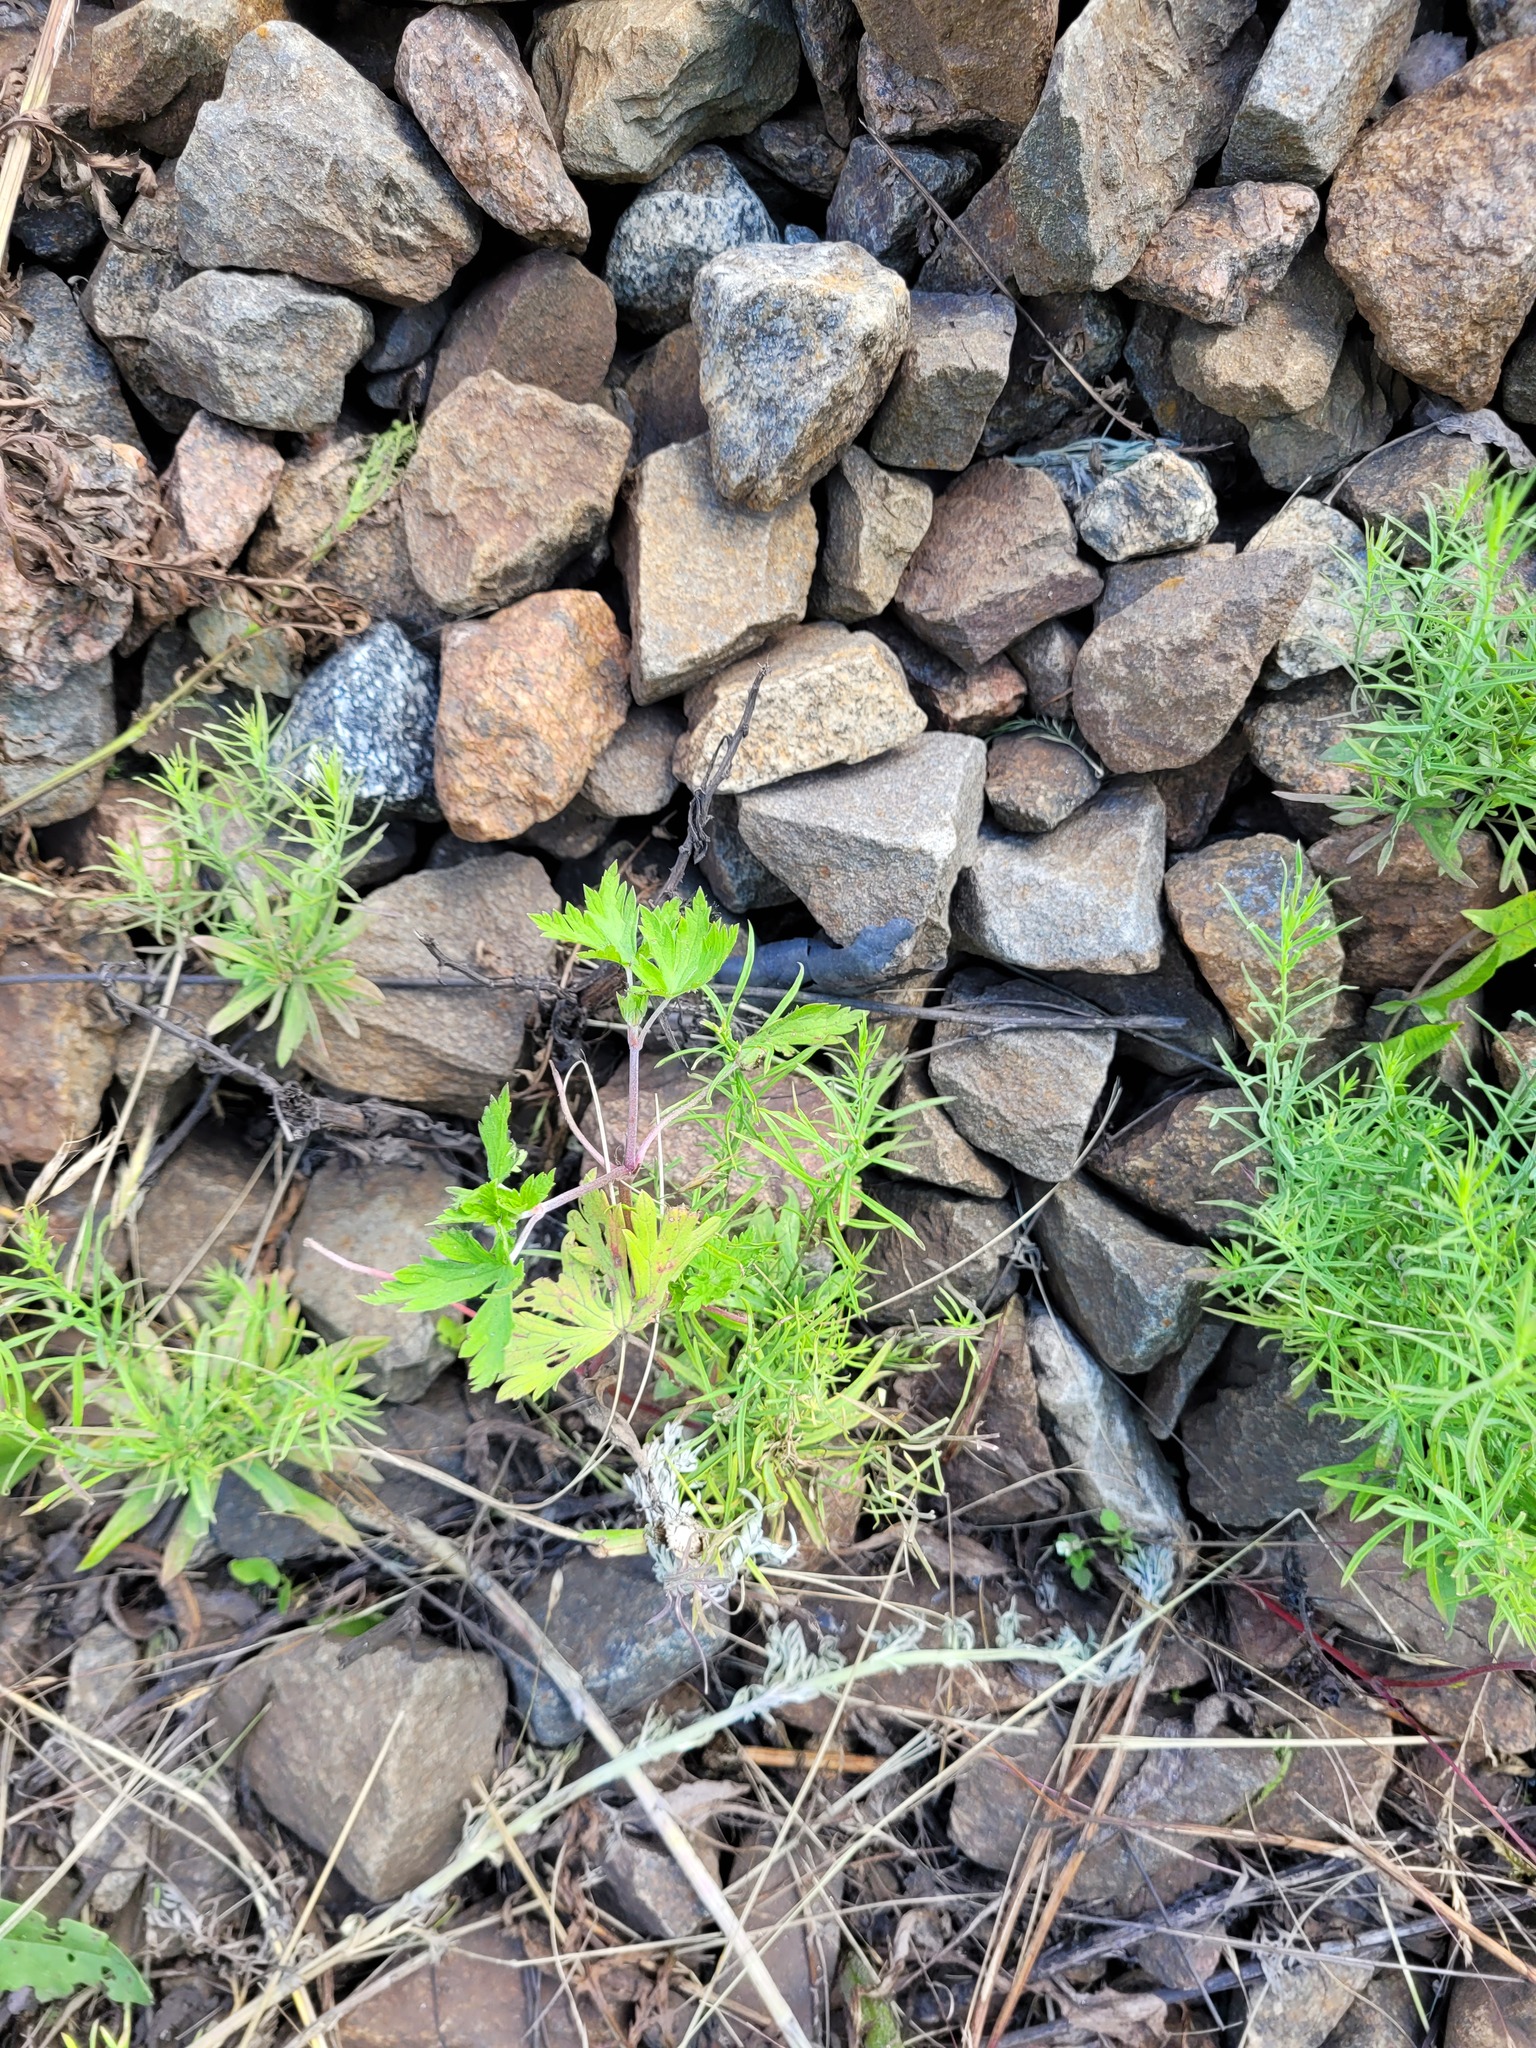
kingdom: Plantae
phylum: Tracheophyta
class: Magnoliopsida
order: Geraniales
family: Geraniaceae
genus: Geranium
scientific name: Geranium sibiricum
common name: Siberian crane's-bill
